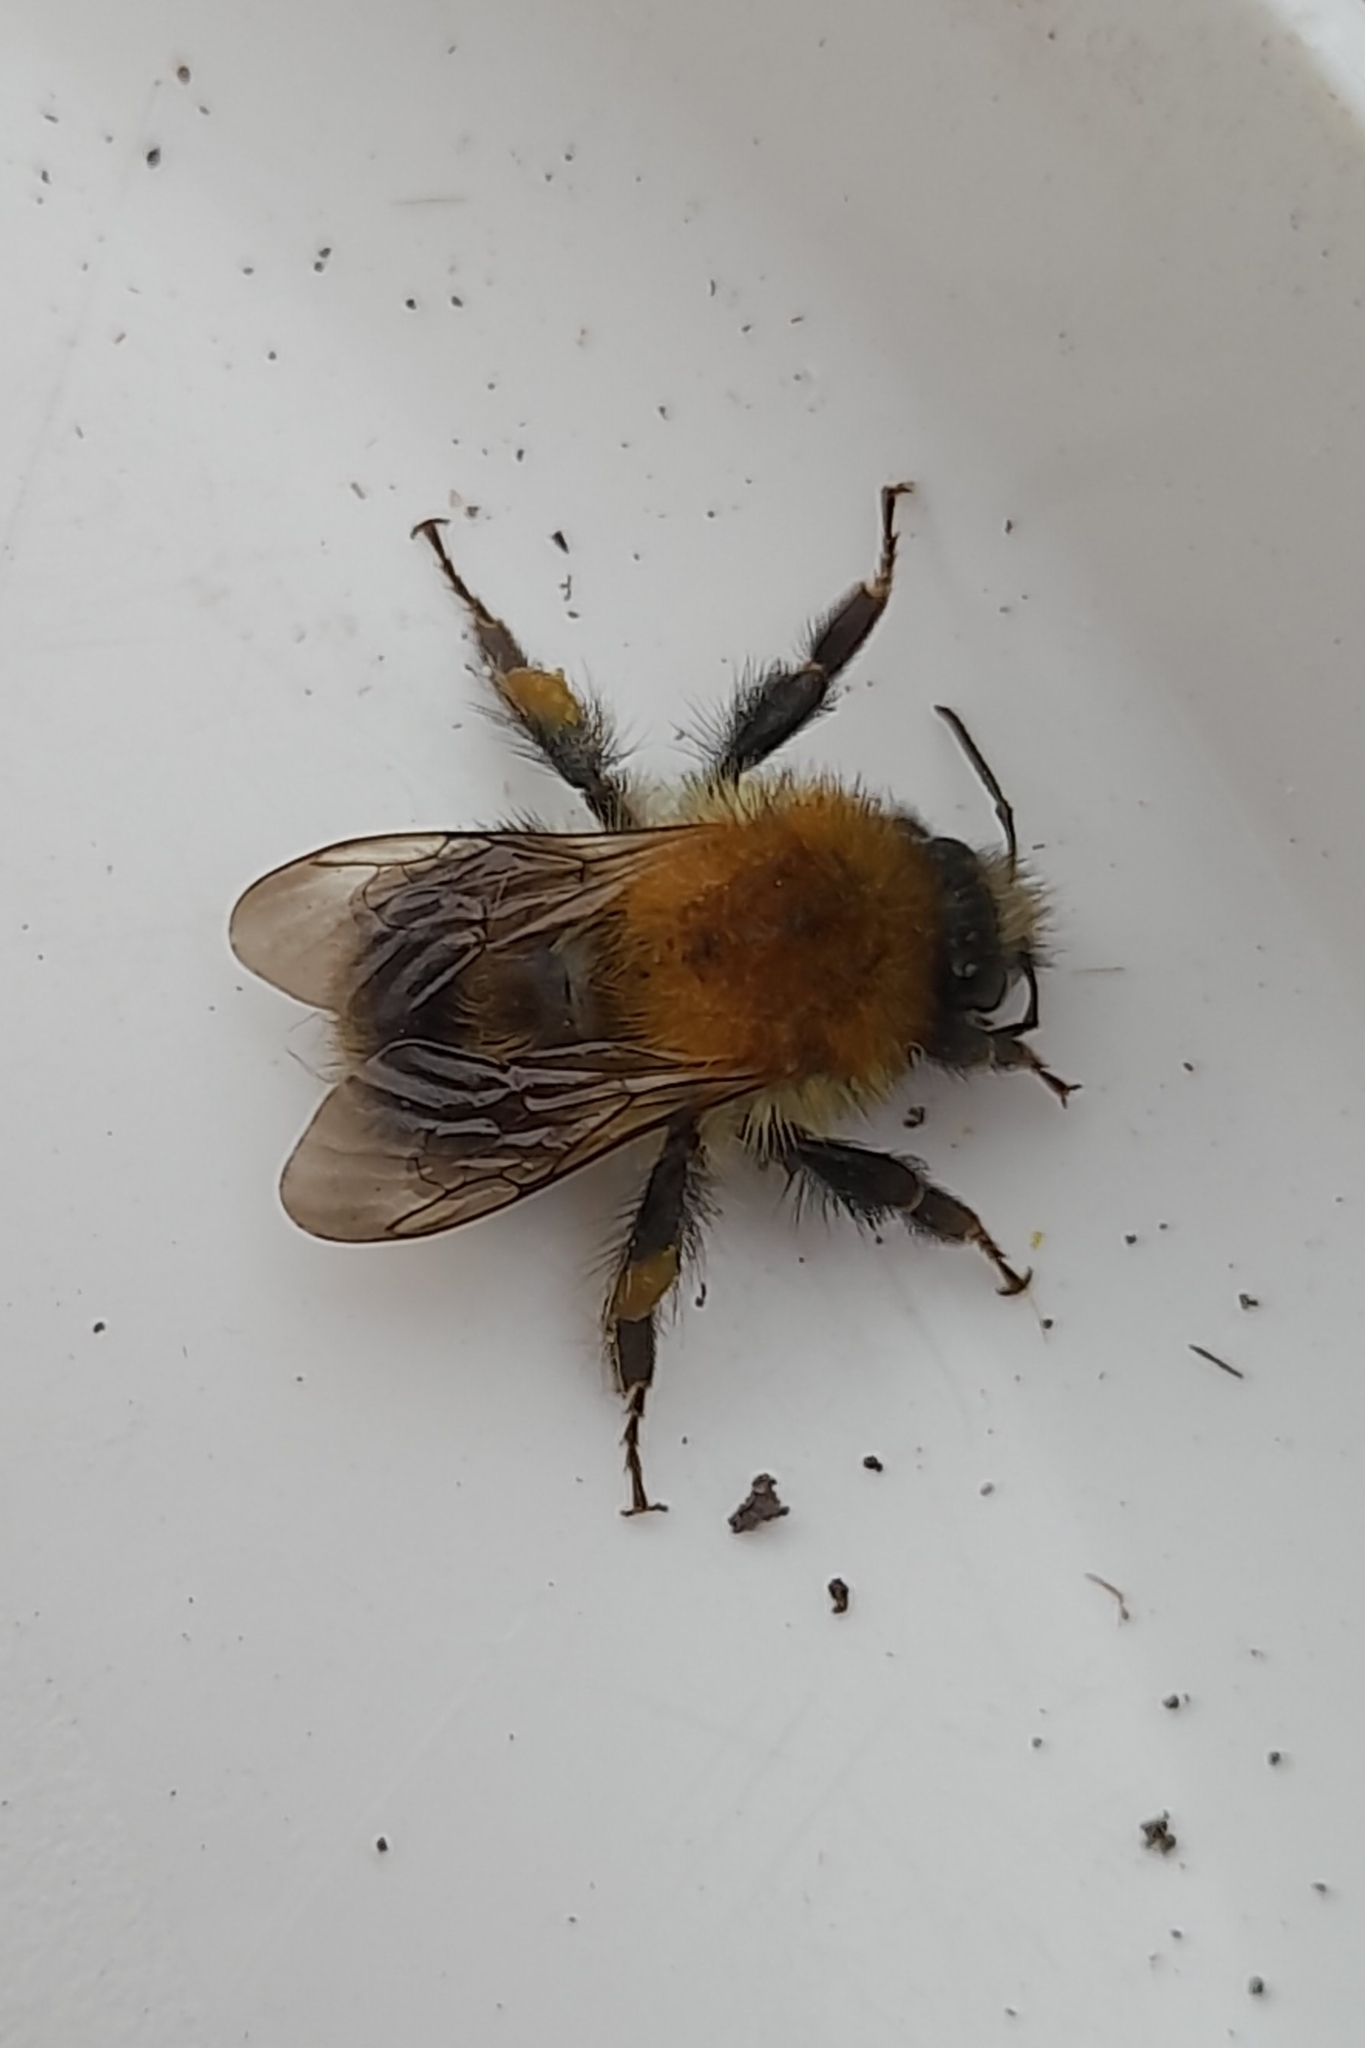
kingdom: Animalia
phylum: Arthropoda
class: Insecta
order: Hymenoptera
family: Apidae
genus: Bombus
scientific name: Bombus pascuorum
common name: Common carder bee
